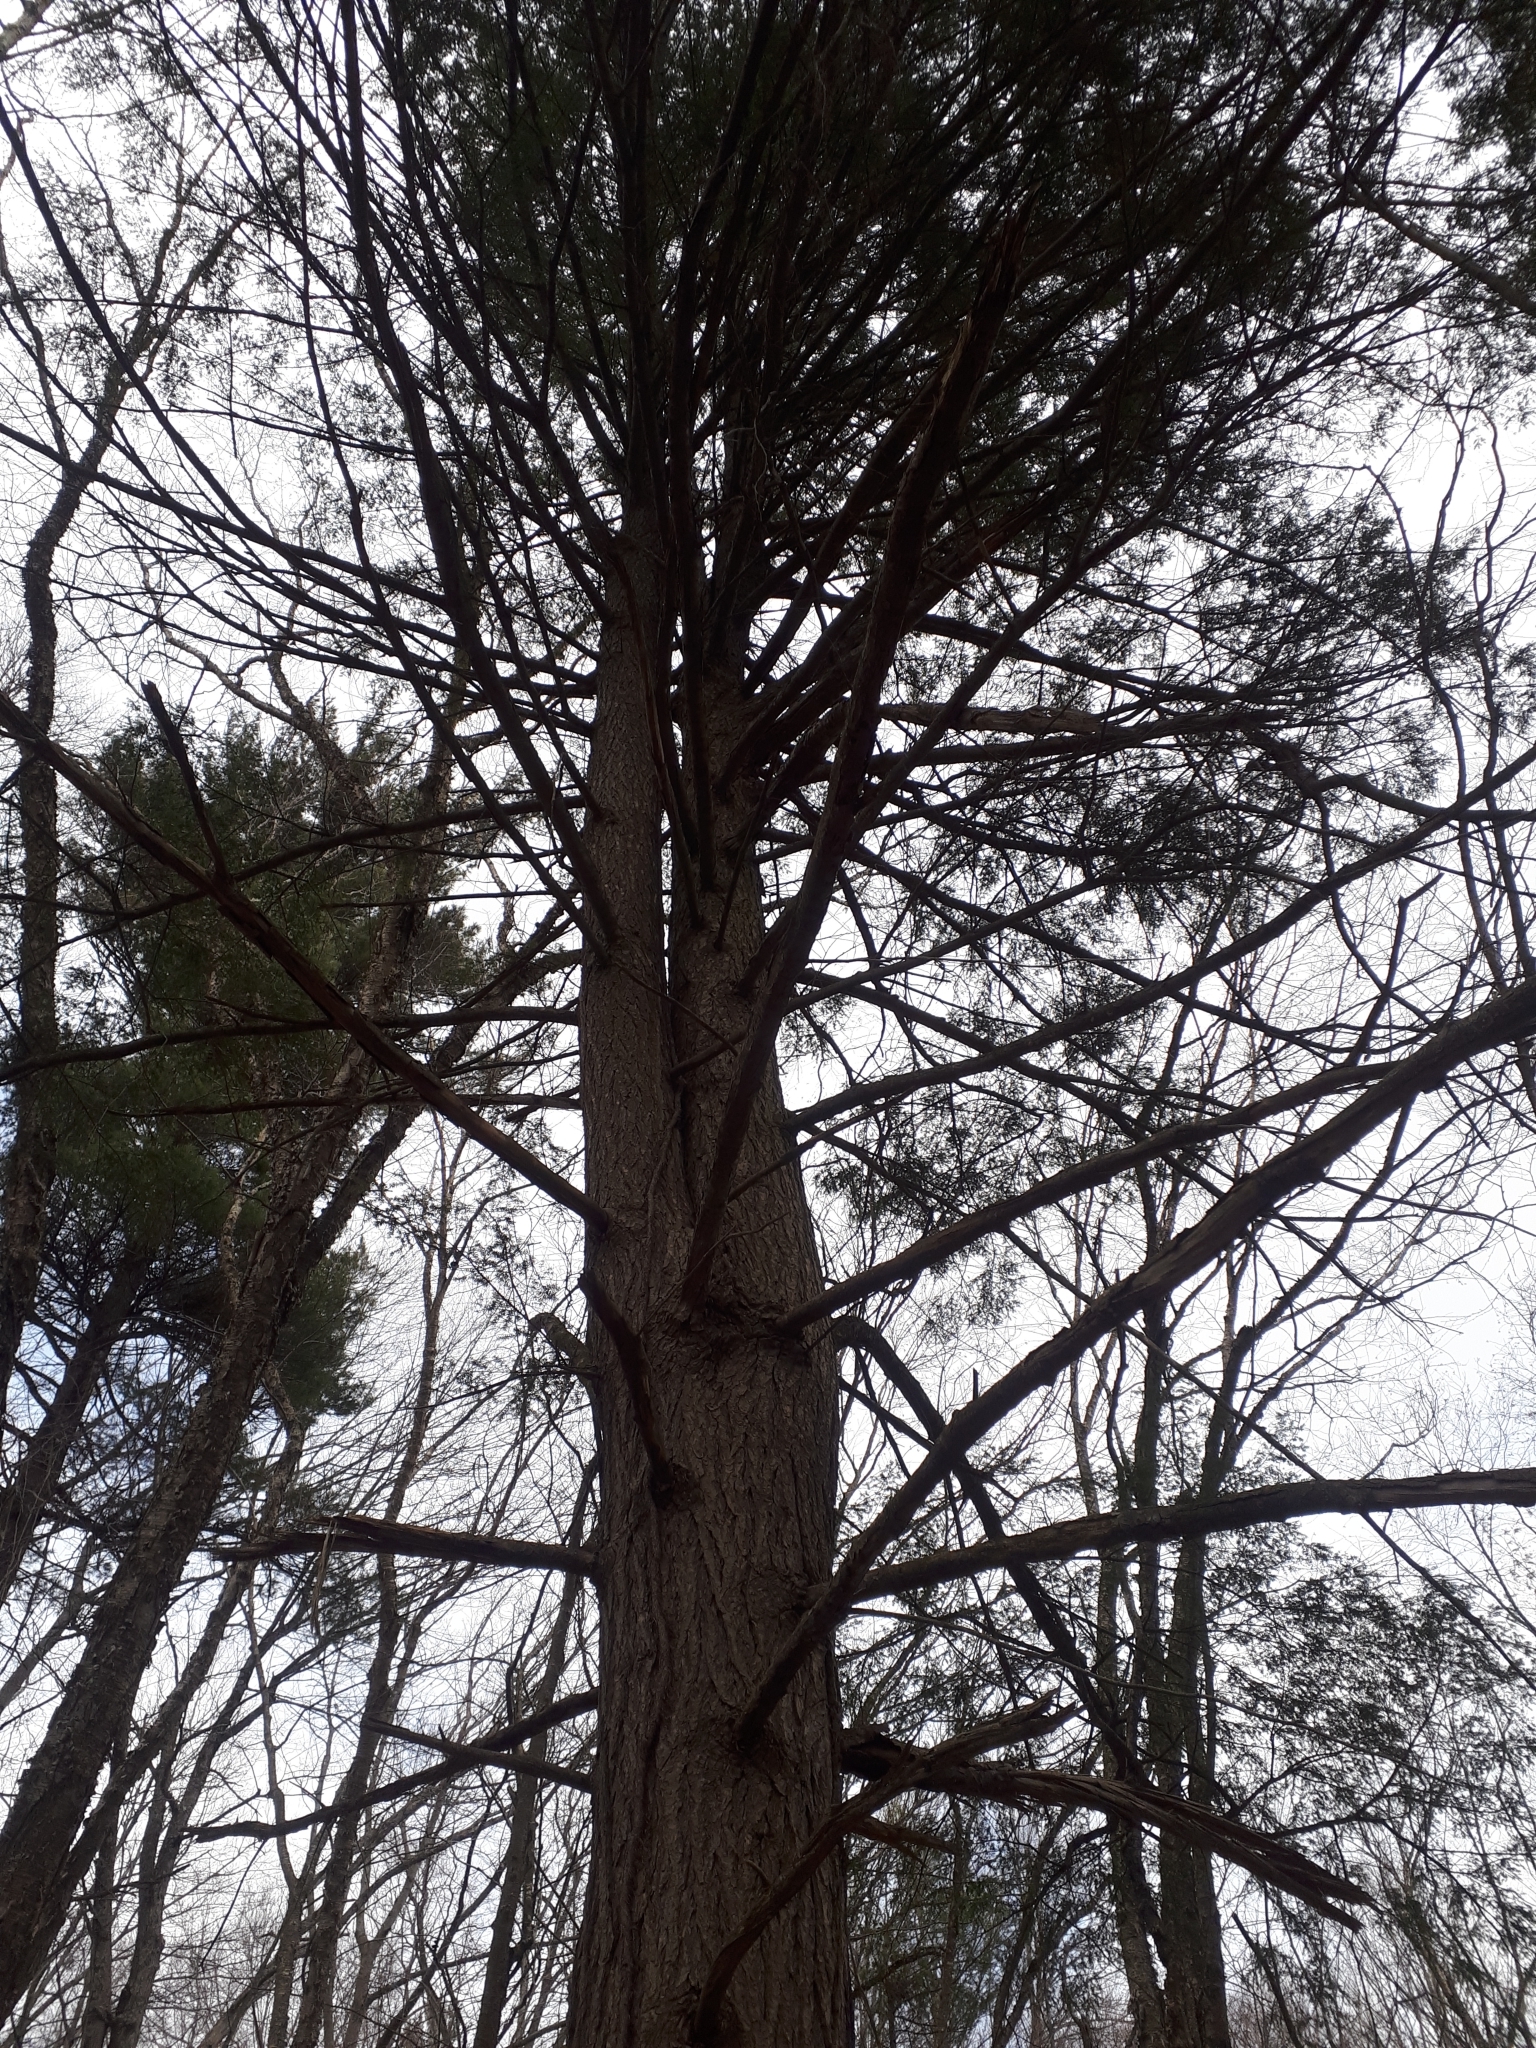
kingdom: Plantae
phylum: Tracheophyta
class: Pinopsida
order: Pinales
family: Pinaceae
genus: Tsuga
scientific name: Tsuga canadensis
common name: Eastern hemlock
